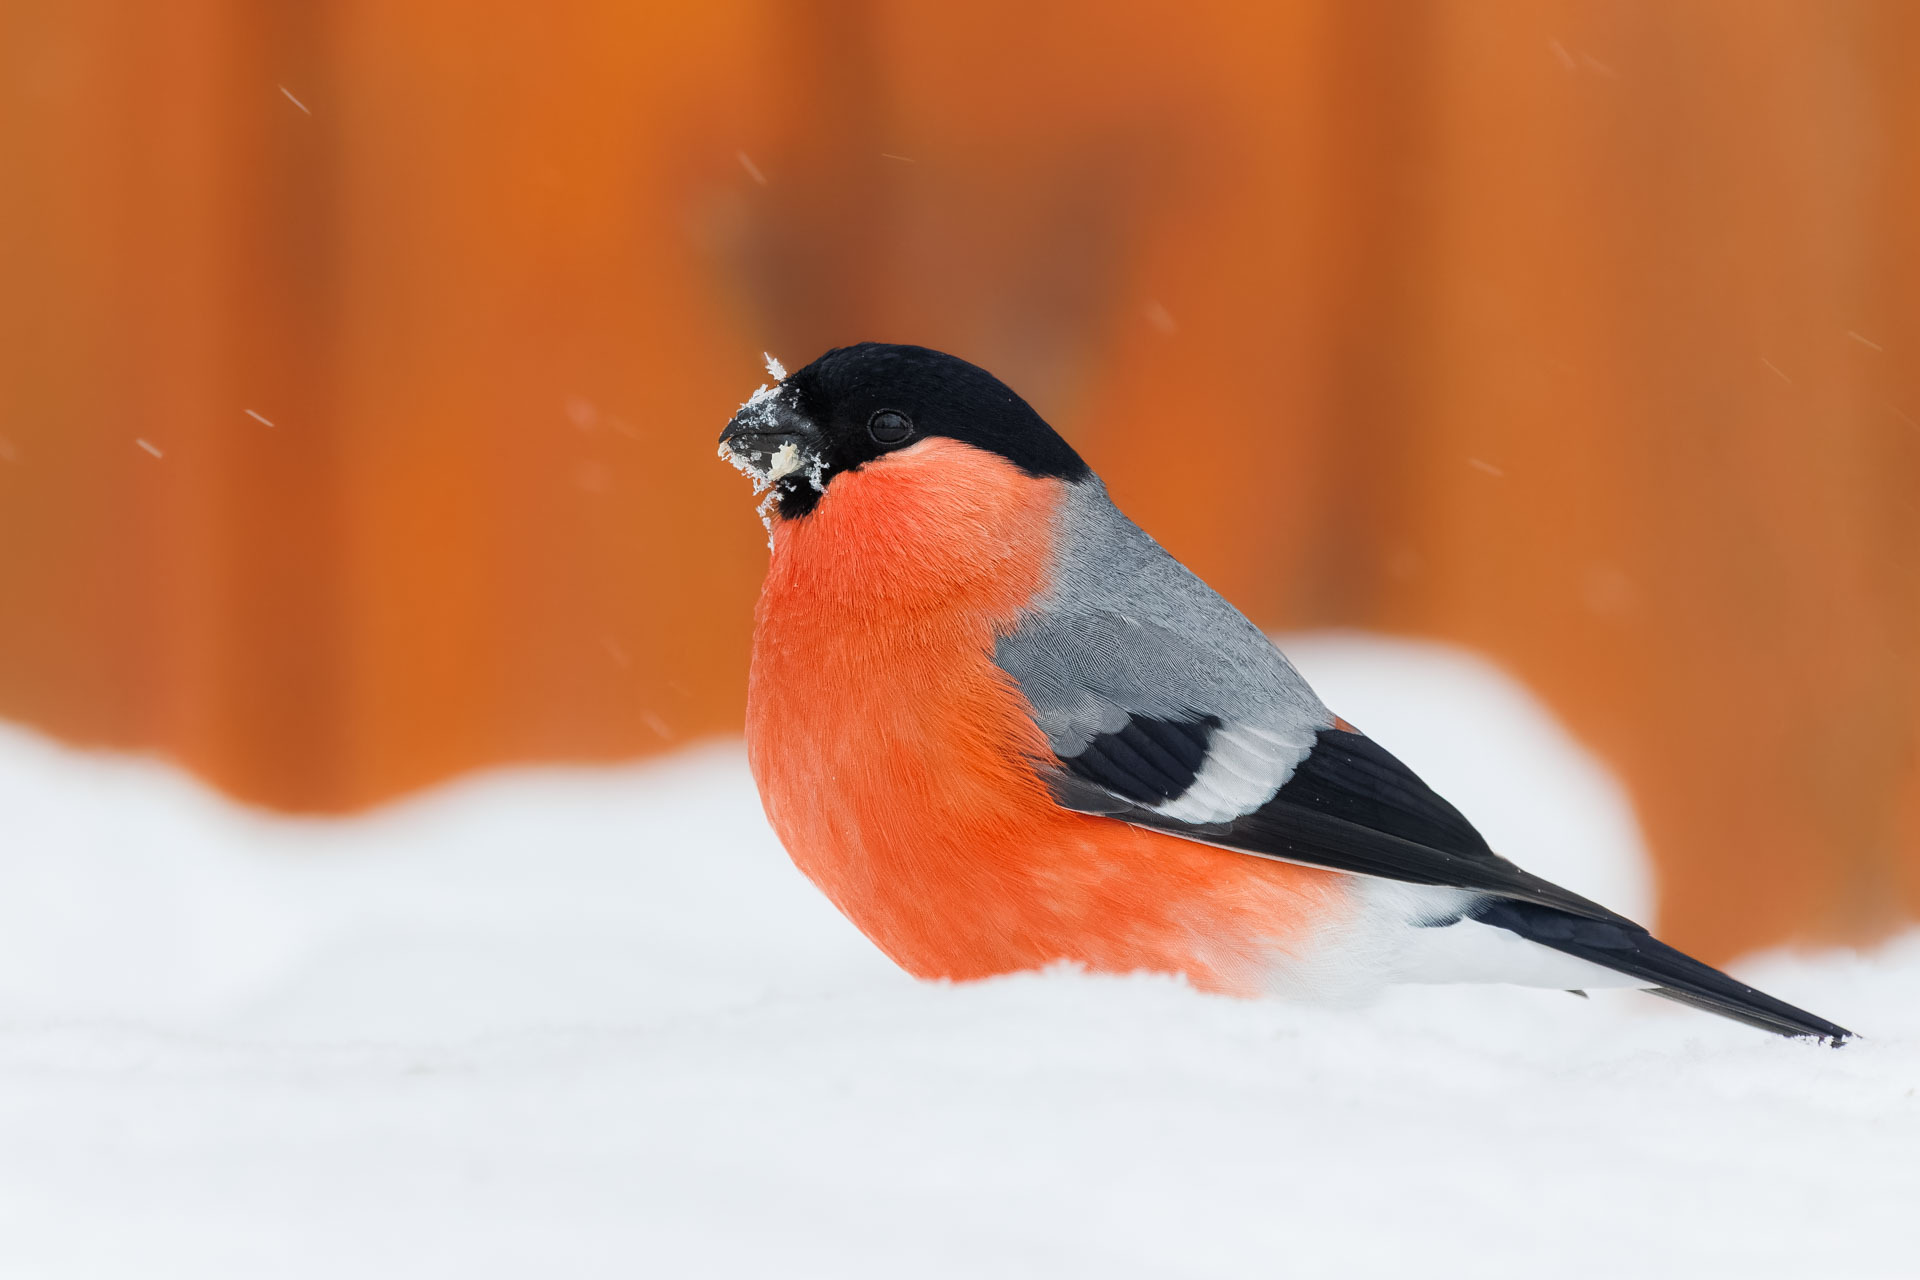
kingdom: Animalia
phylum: Chordata
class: Aves
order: Passeriformes
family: Fringillidae
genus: Pyrrhula
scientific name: Pyrrhula pyrrhula
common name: Eurasian bullfinch
